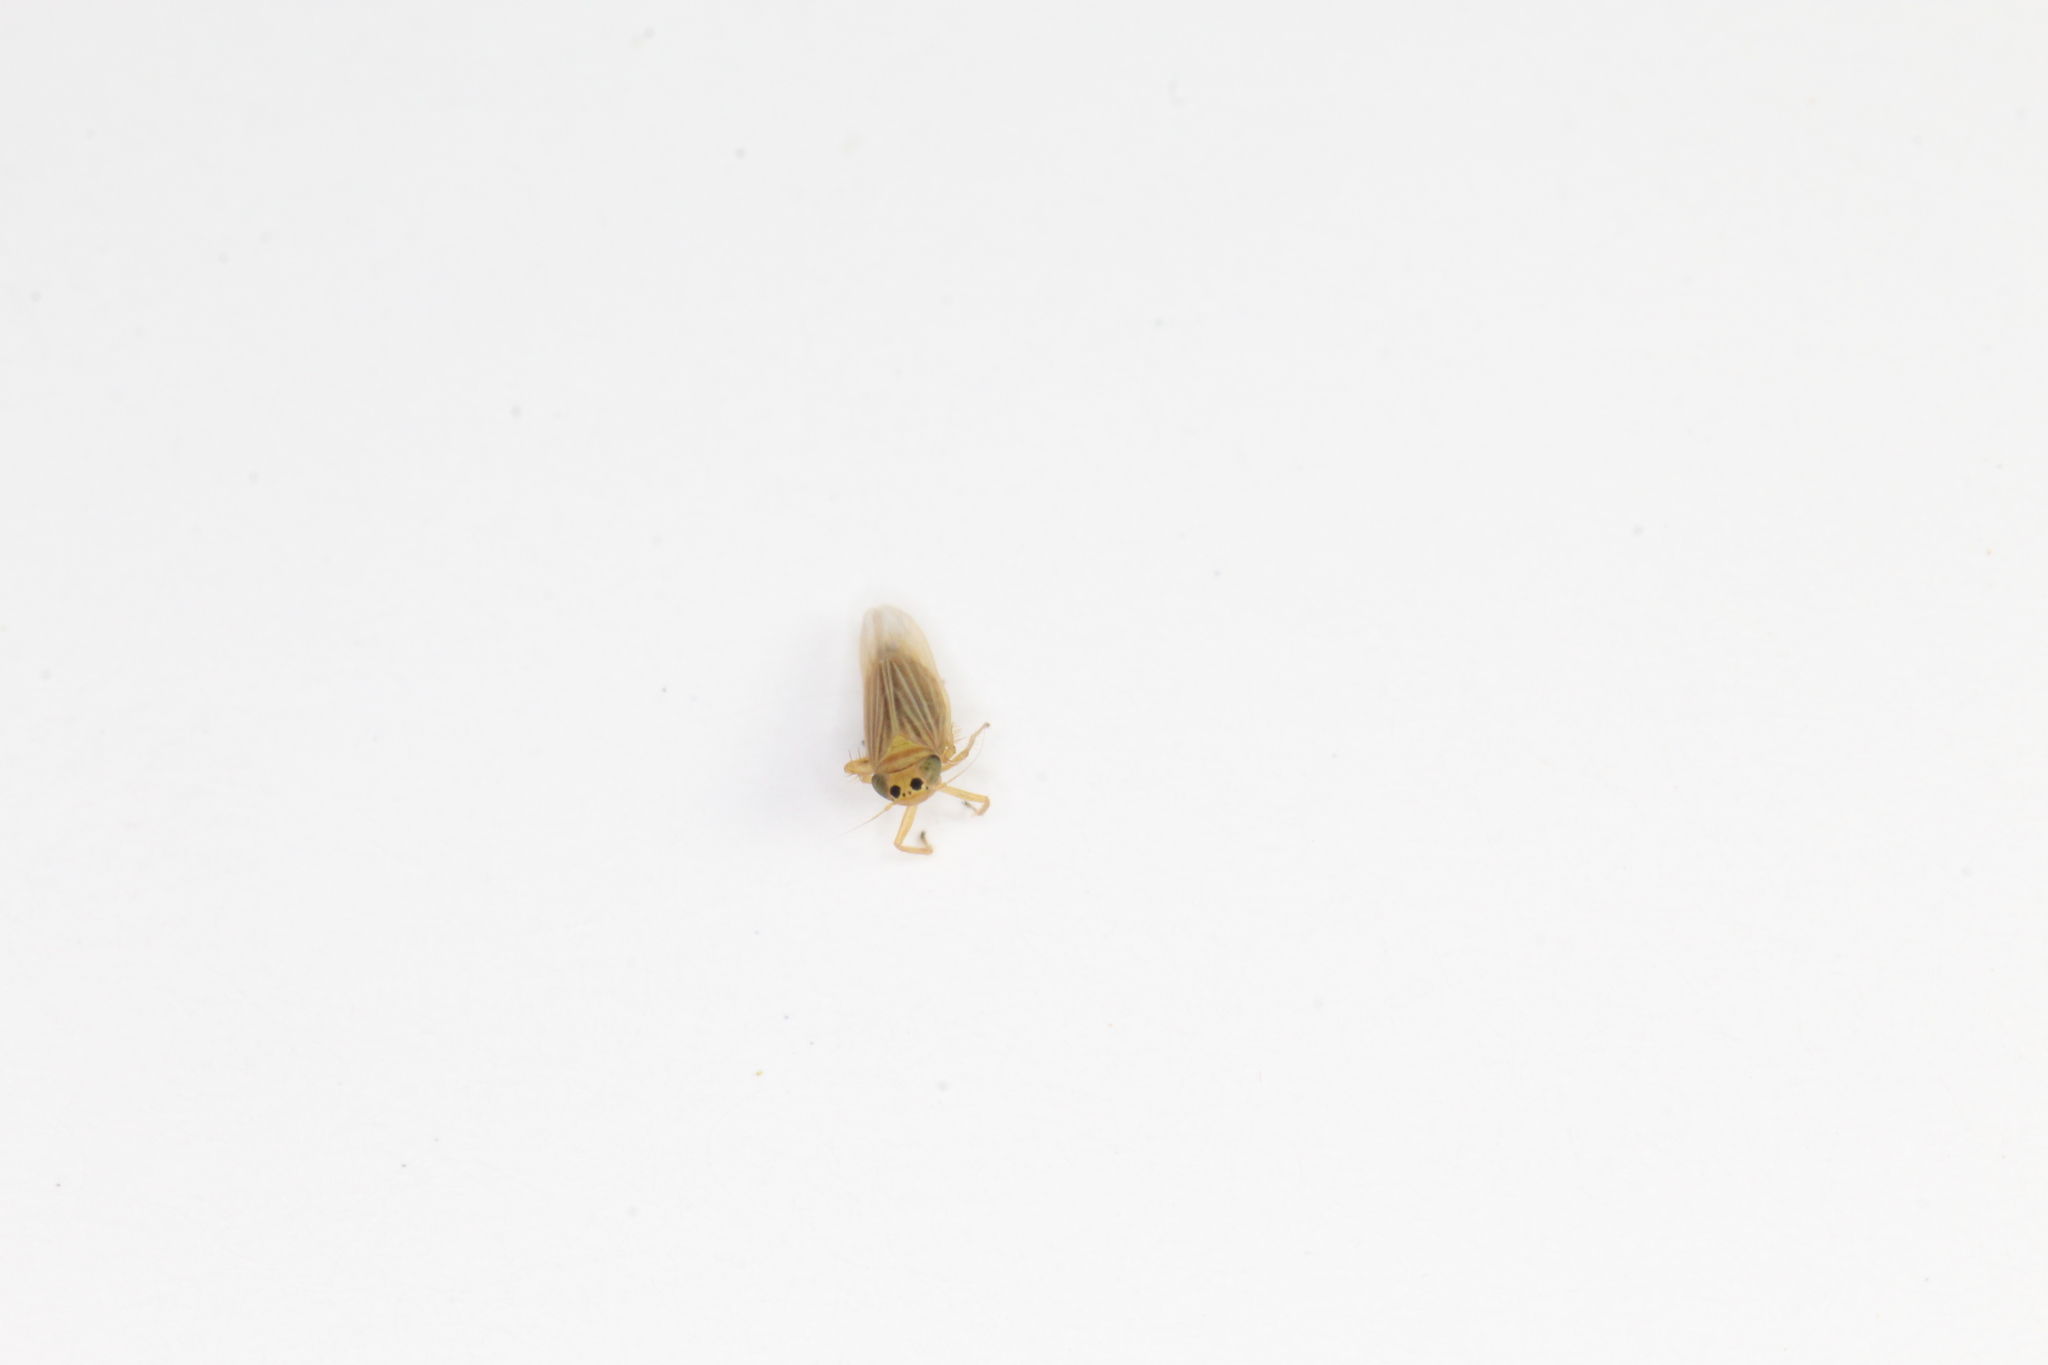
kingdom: Animalia
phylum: Arthropoda
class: Insecta
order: Hemiptera
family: Cicadellidae
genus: Graminella
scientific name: Graminella villicus
